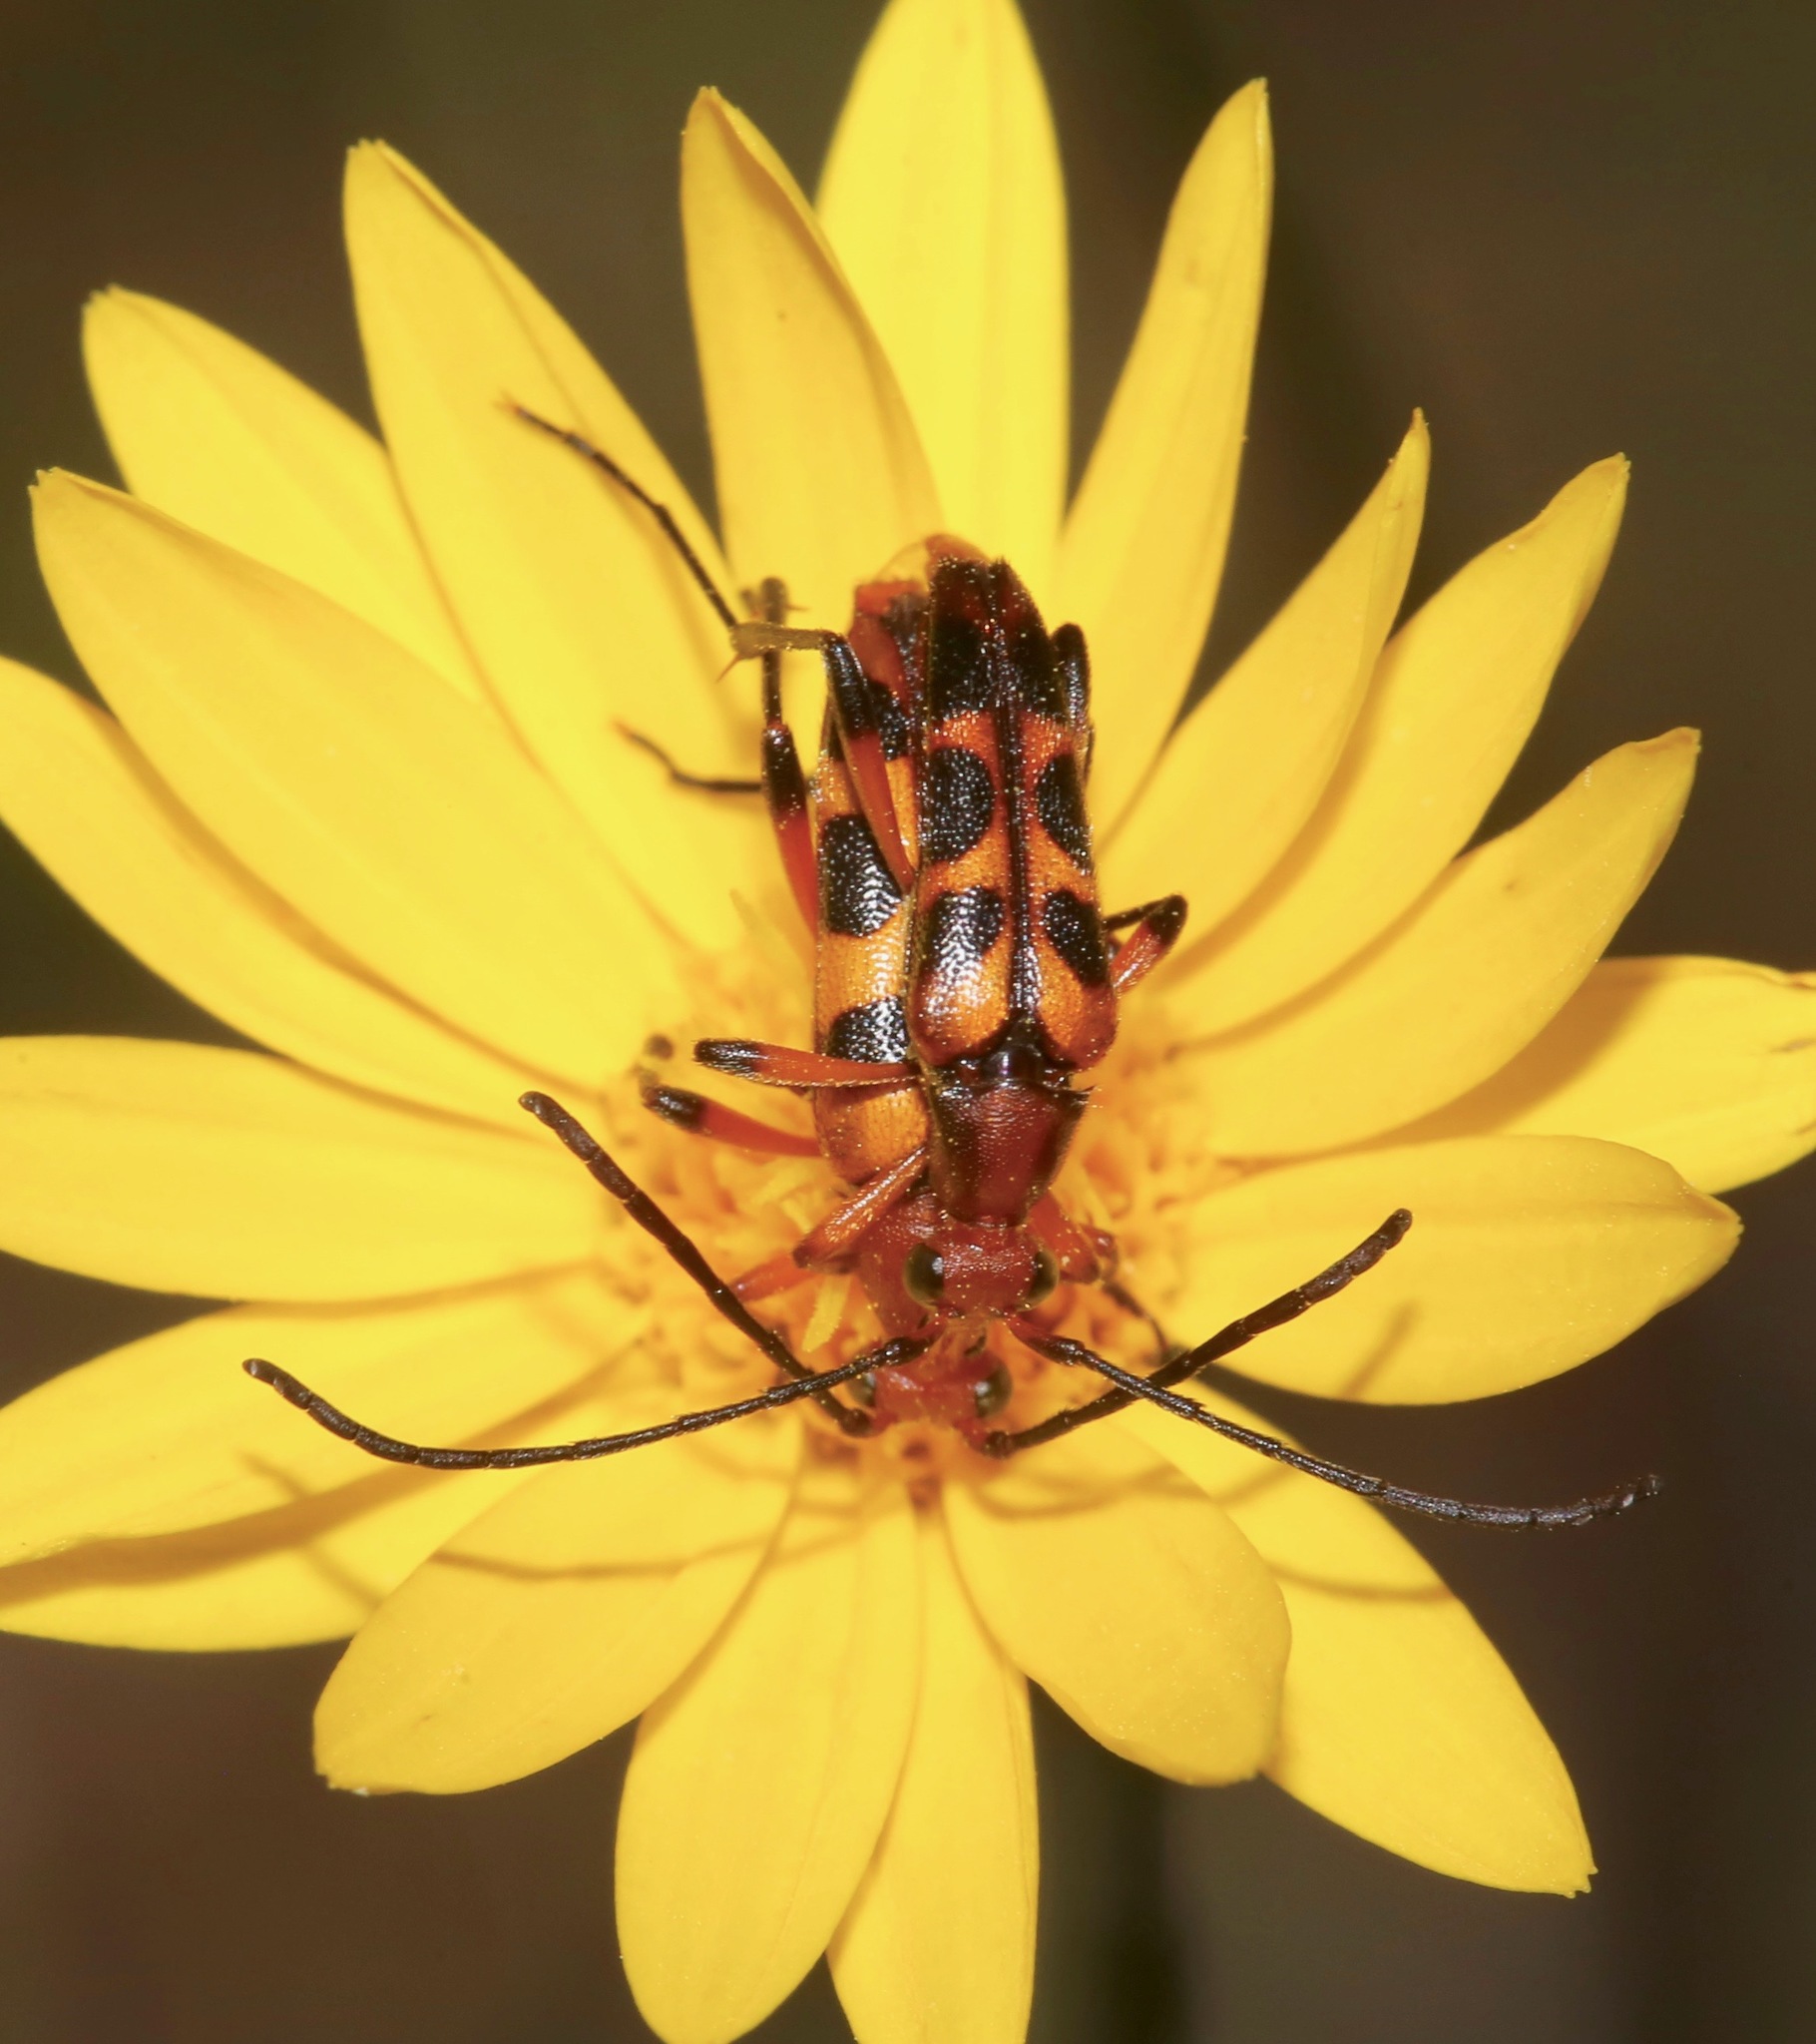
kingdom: Animalia
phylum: Arthropoda
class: Insecta
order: Coleoptera
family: Cerambycidae
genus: Strangalia
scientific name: Strangalia sexnotata
